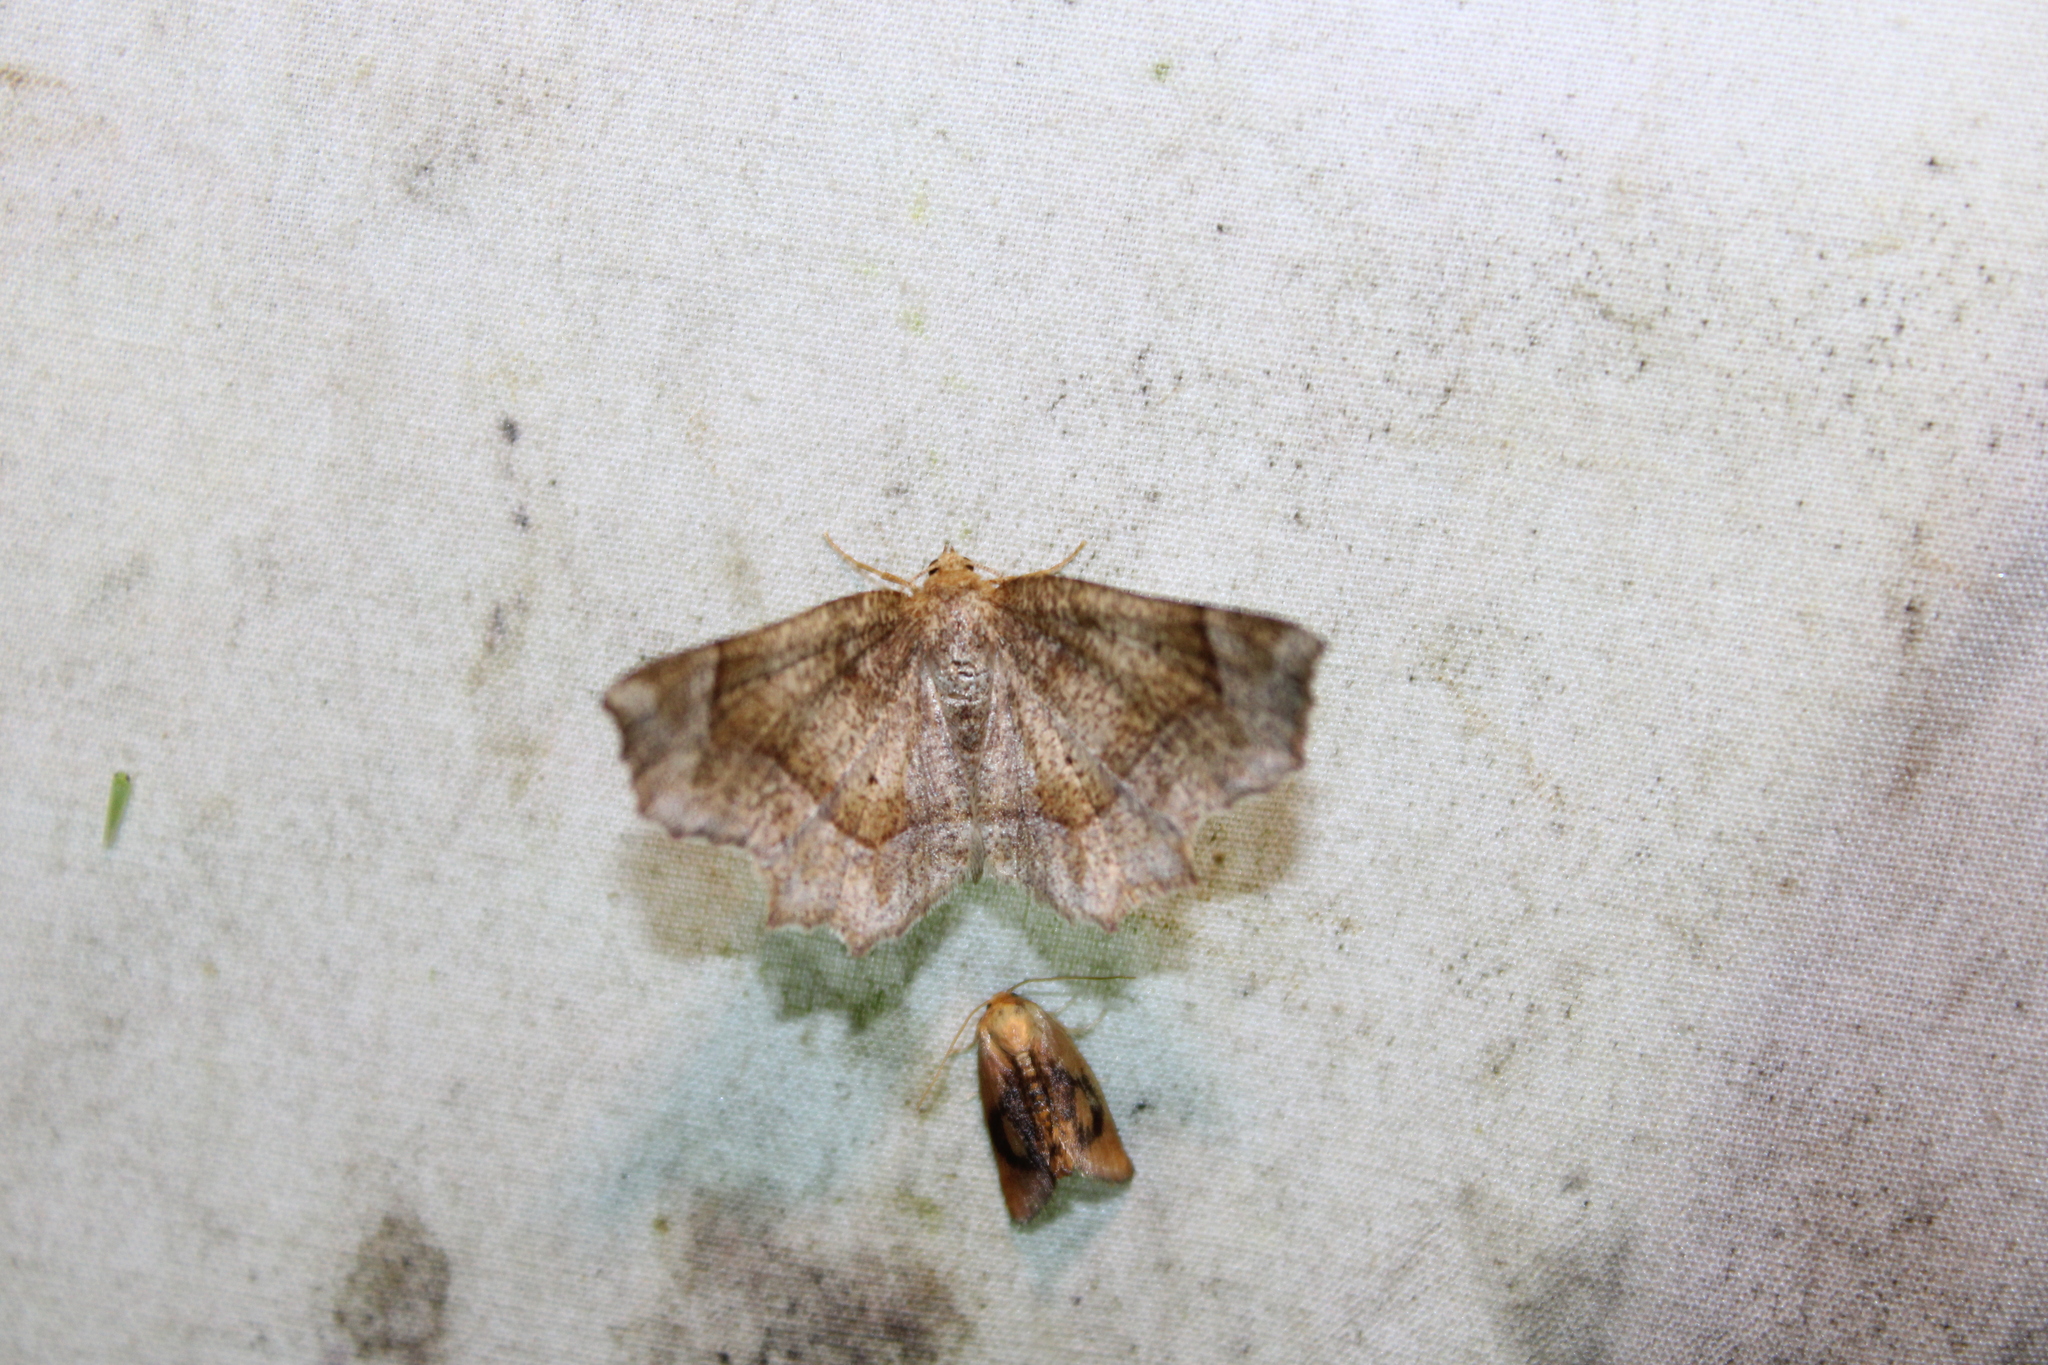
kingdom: Animalia
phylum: Arthropoda
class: Insecta
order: Lepidoptera
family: Geometridae
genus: Metarranthis
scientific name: Metarranthis hypochraria
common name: Common metarranthis
